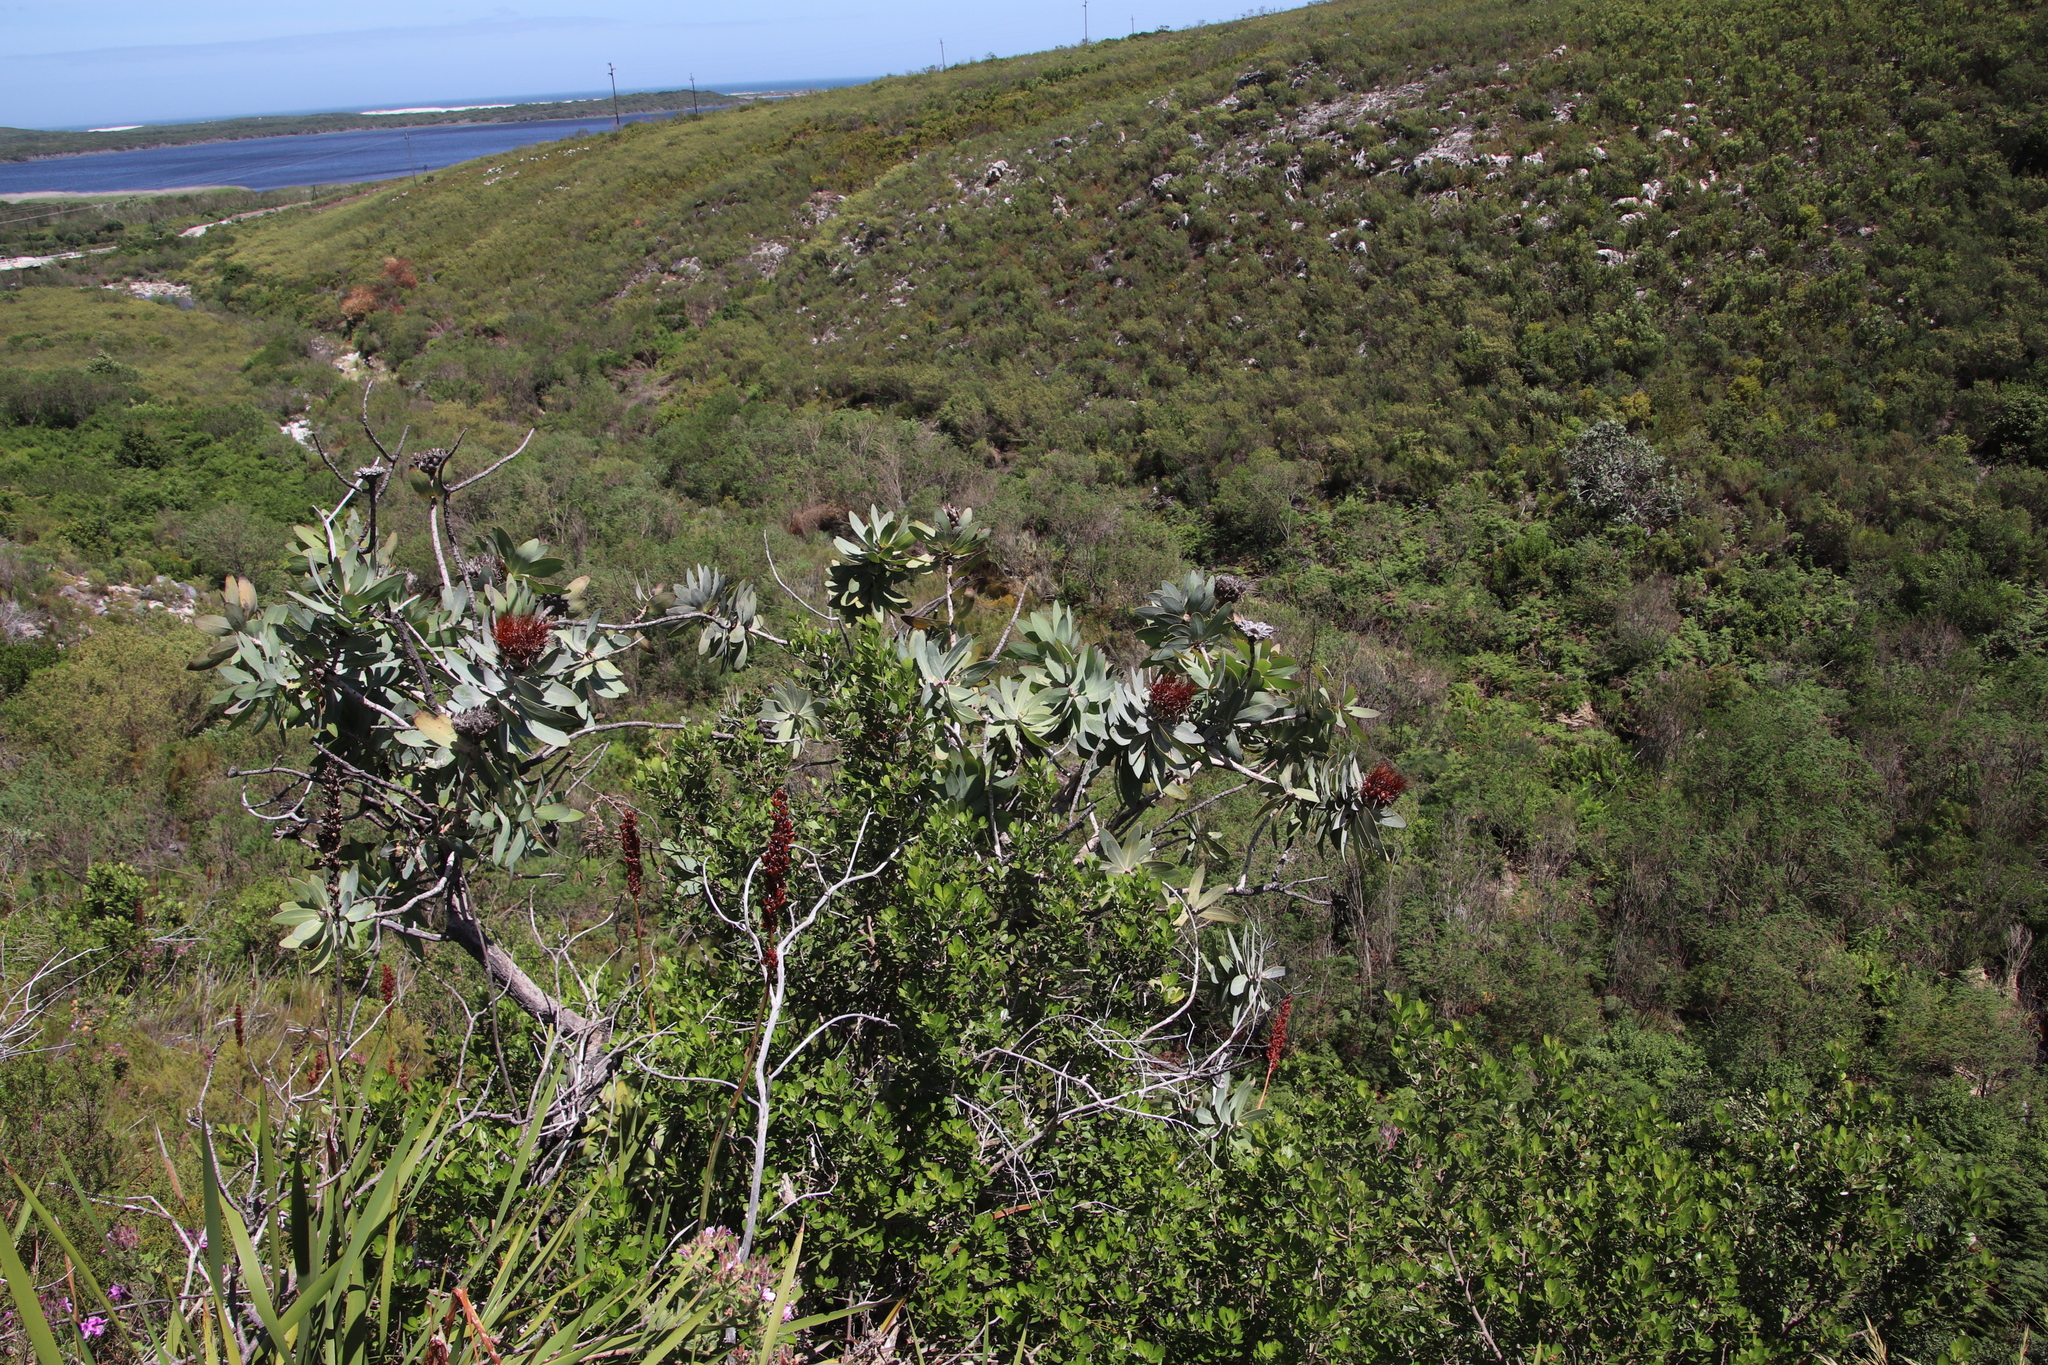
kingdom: Plantae
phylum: Tracheophyta
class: Magnoliopsida
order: Proteales
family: Proteaceae
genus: Protea
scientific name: Protea nitida
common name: Tree protea
